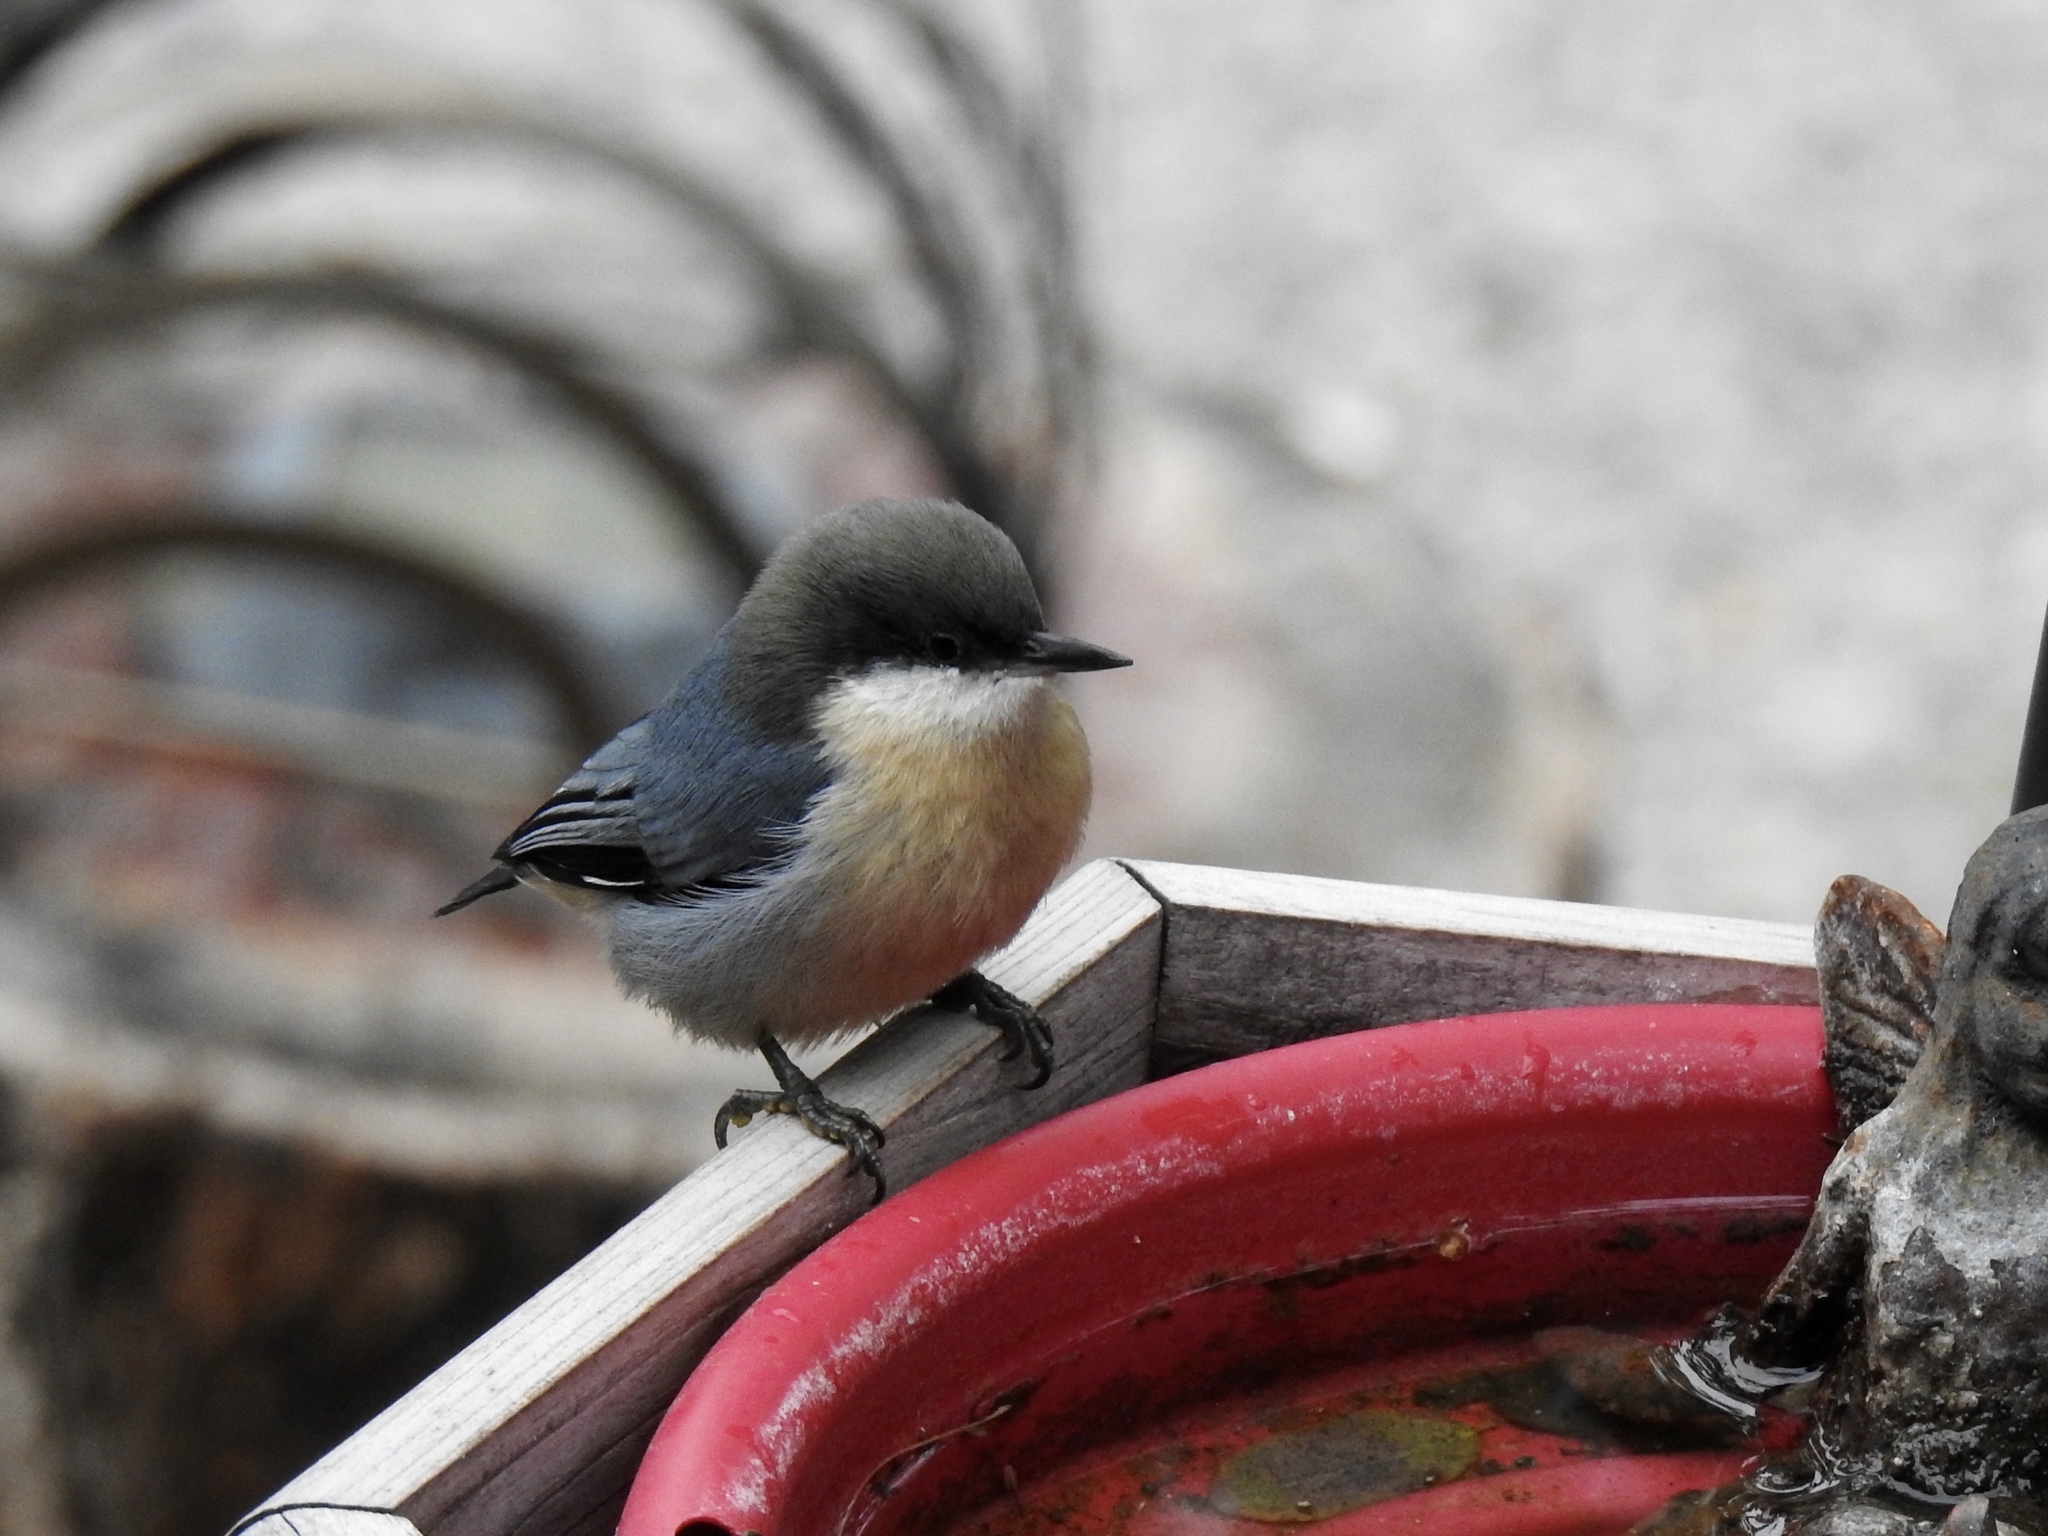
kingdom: Animalia
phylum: Chordata
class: Aves
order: Passeriformes
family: Sittidae
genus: Sitta
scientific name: Sitta pygmaea
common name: Pygmy nuthatch
